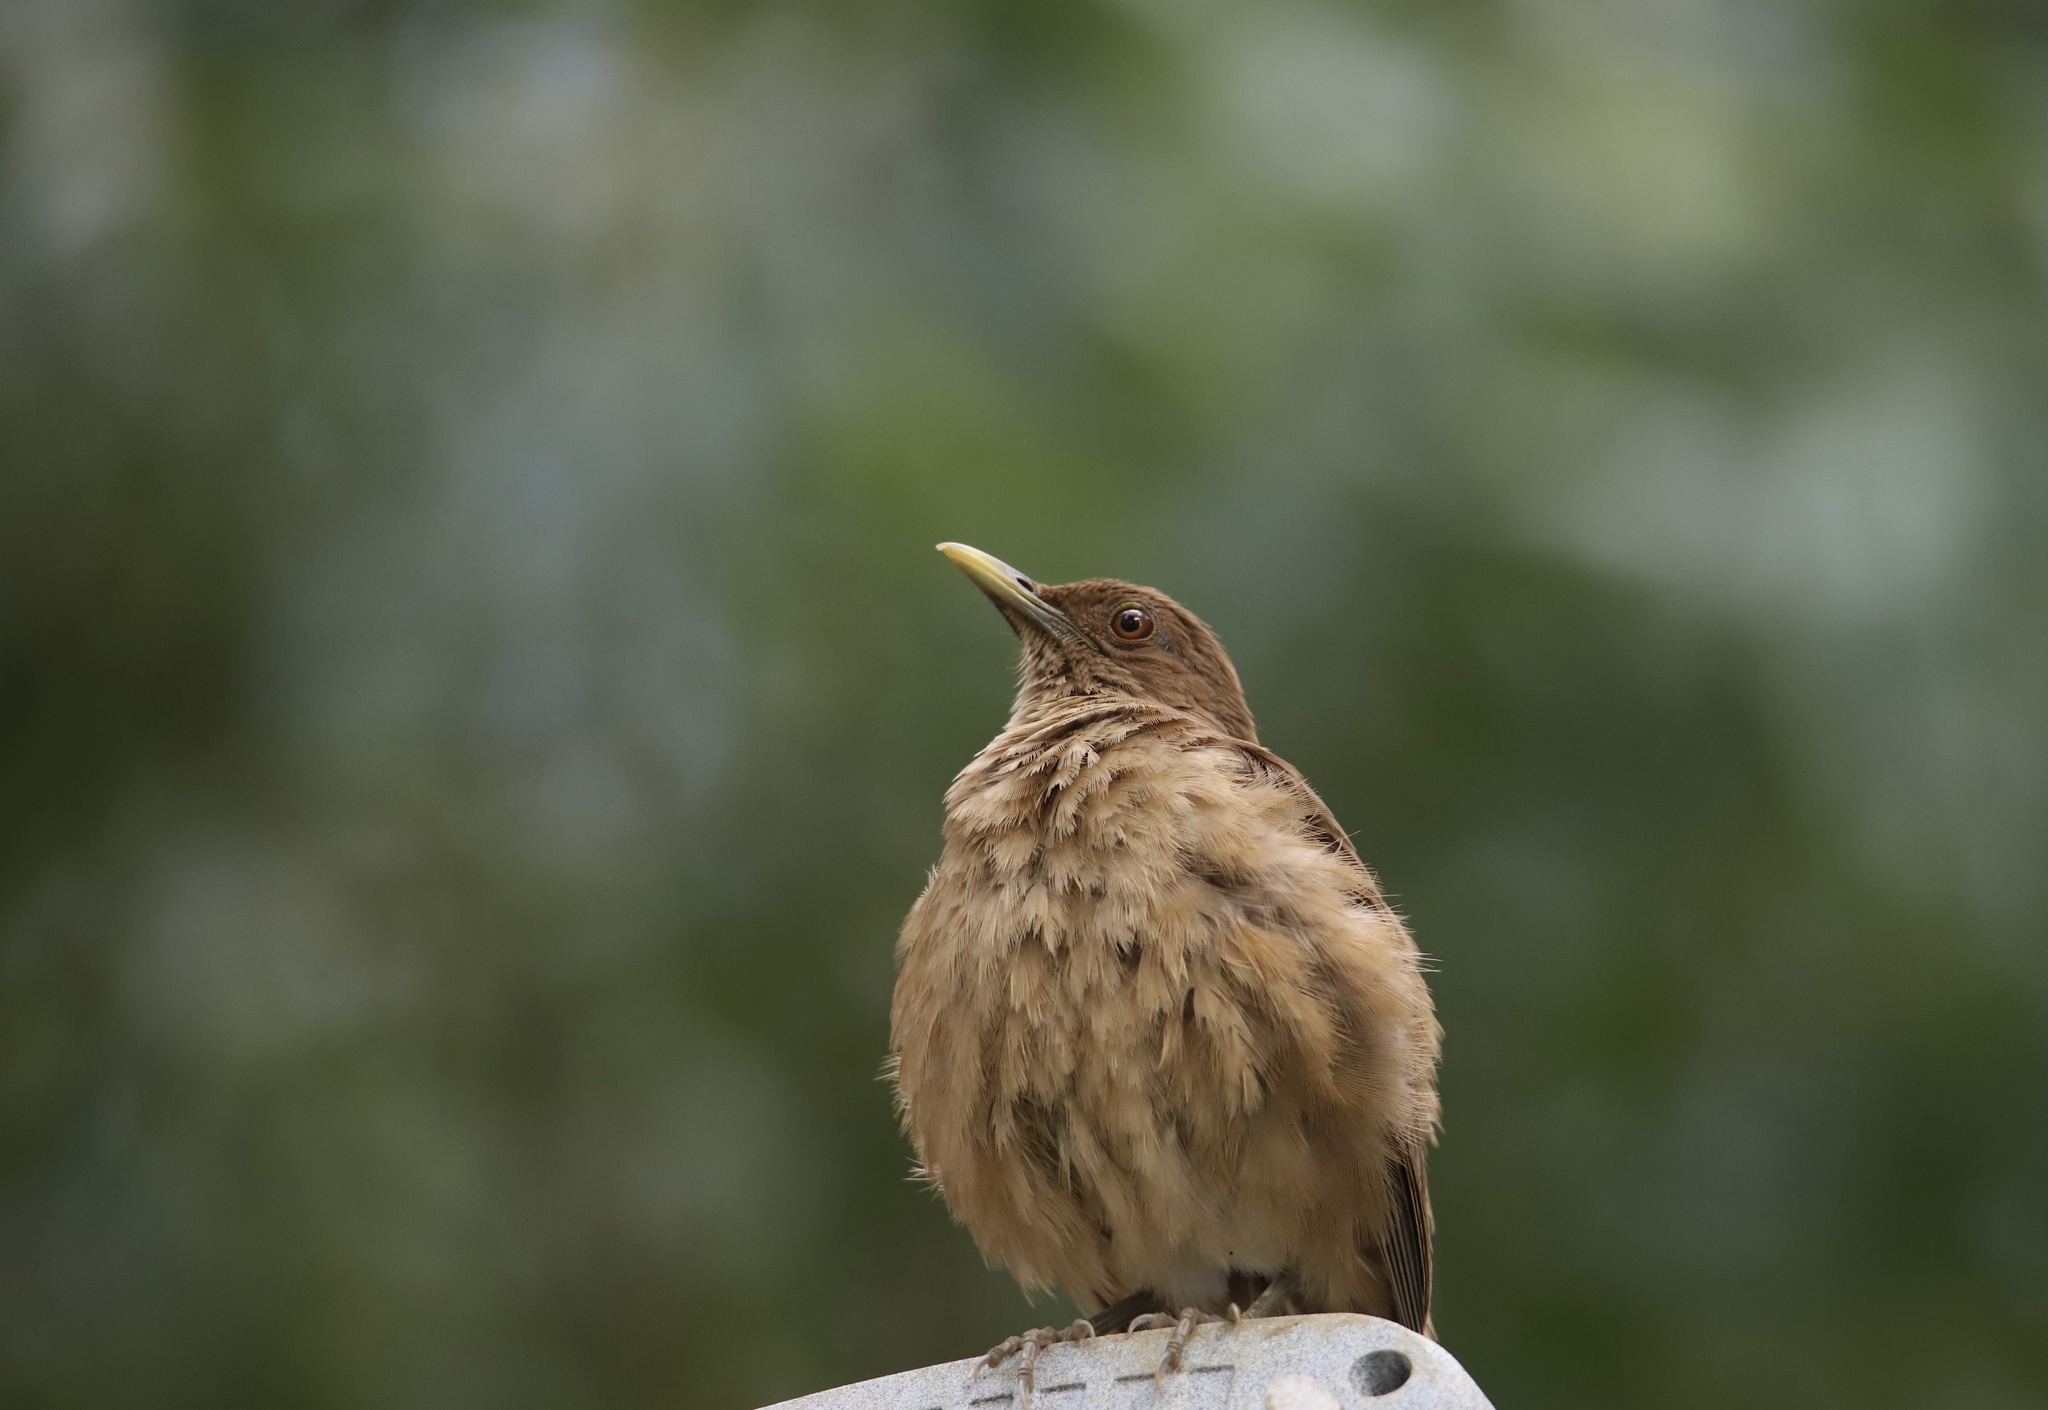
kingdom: Animalia
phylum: Chordata
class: Aves
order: Passeriformes
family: Turdidae
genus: Turdus
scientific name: Turdus grayi
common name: Clay-colored thrush
